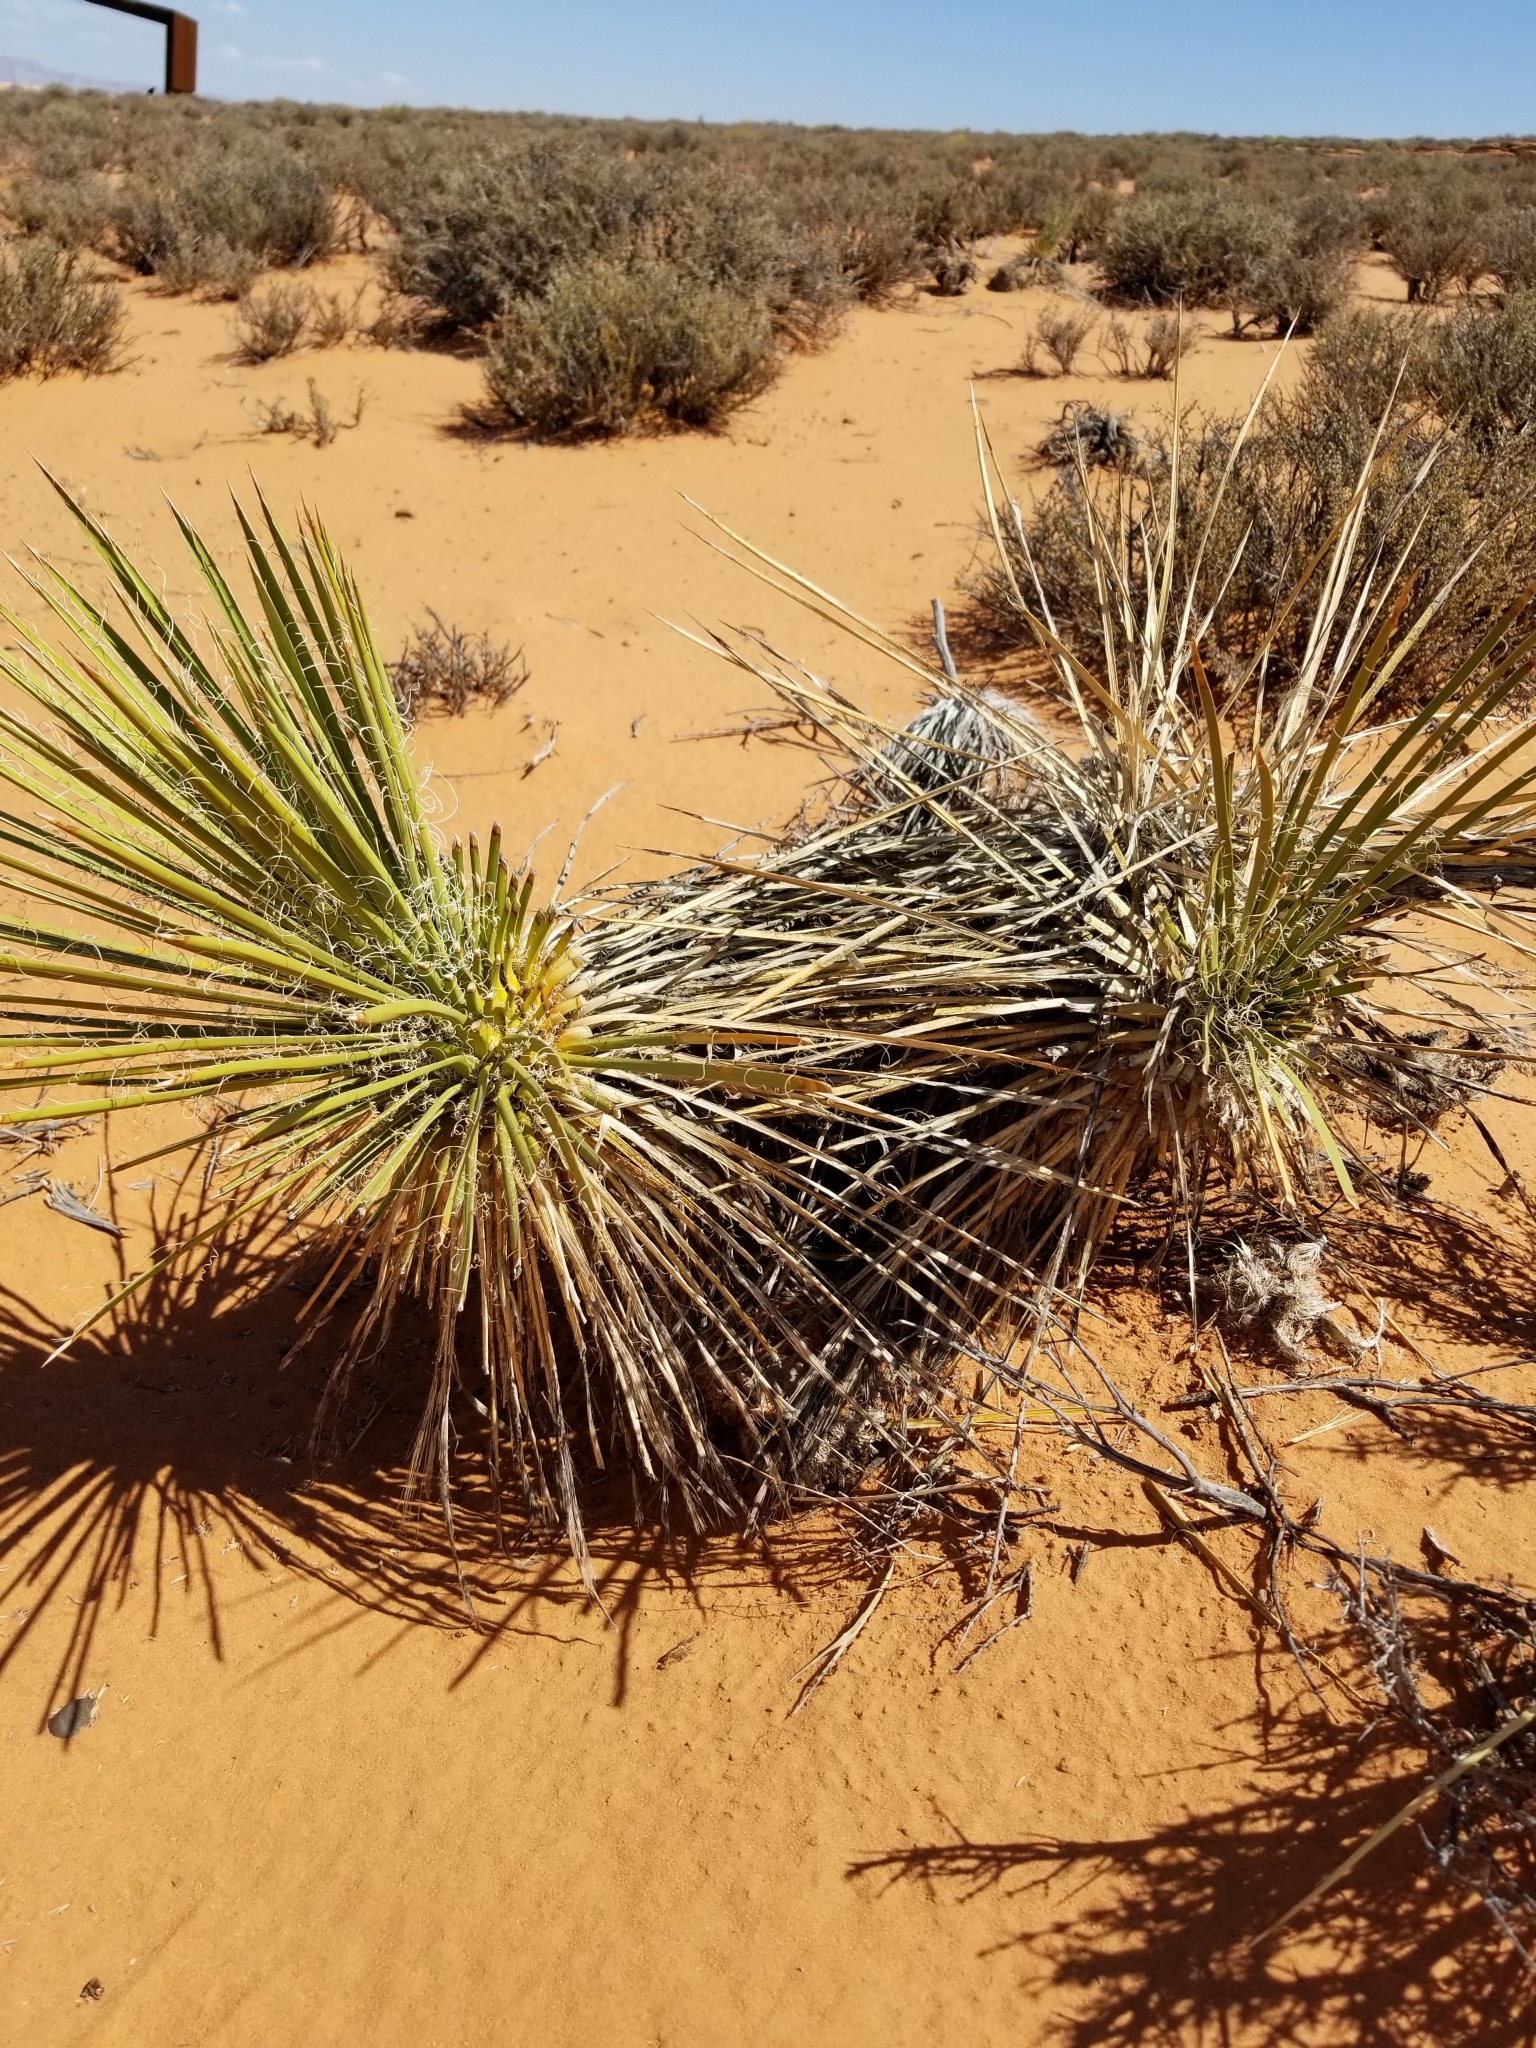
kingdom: Plantae
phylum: Tracheophyta
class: Liliopsida
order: Asparagales
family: Asparagaceae
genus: Yucca
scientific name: Yucca angustissima
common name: Narrowleaf yucca
